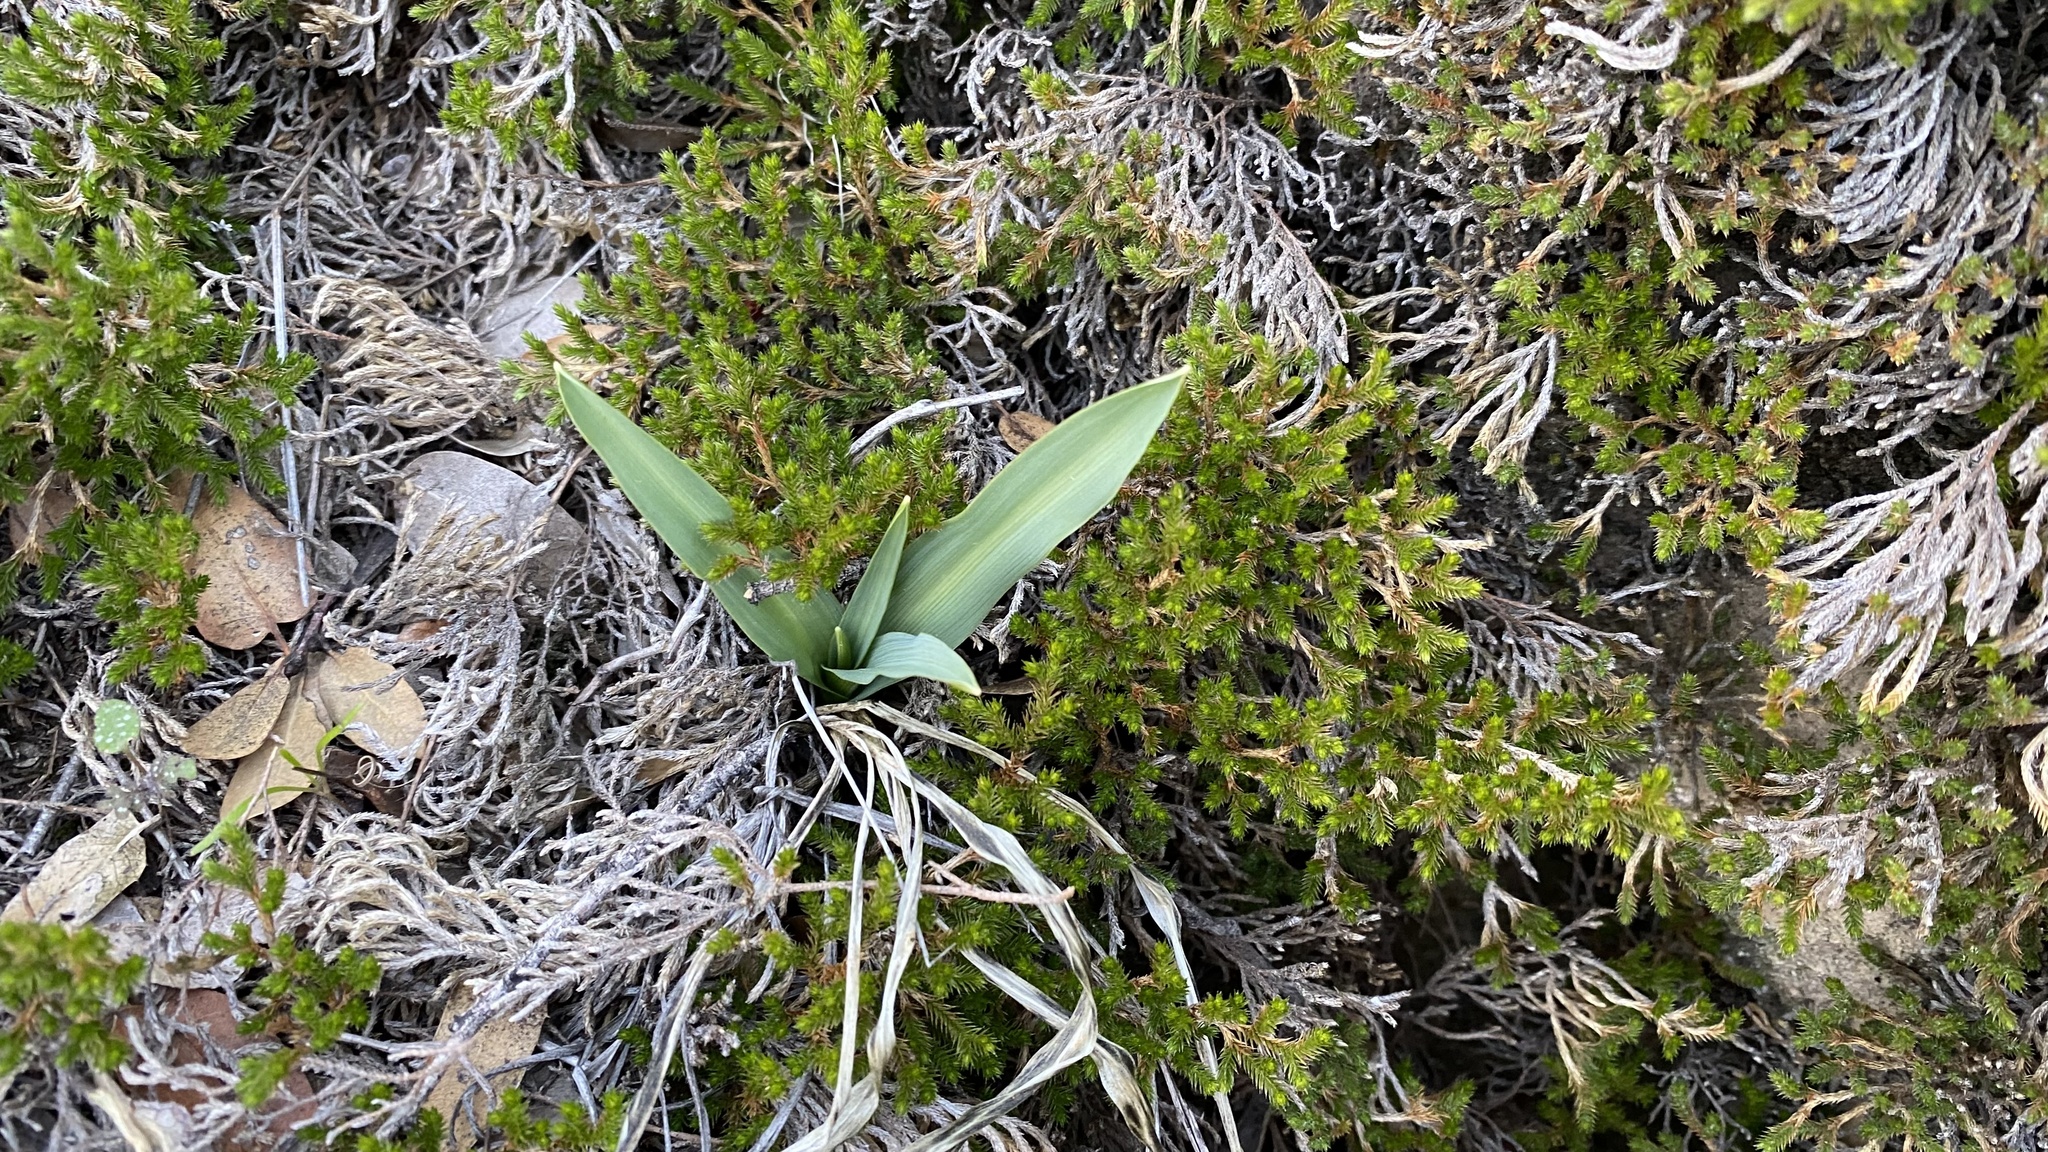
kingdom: Plantae
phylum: Tracheophyta
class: Liliopsida
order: Asparagales
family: Asparagaceae
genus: Chlorogalum
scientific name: Chlorogalum pomeridianum
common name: Amole
